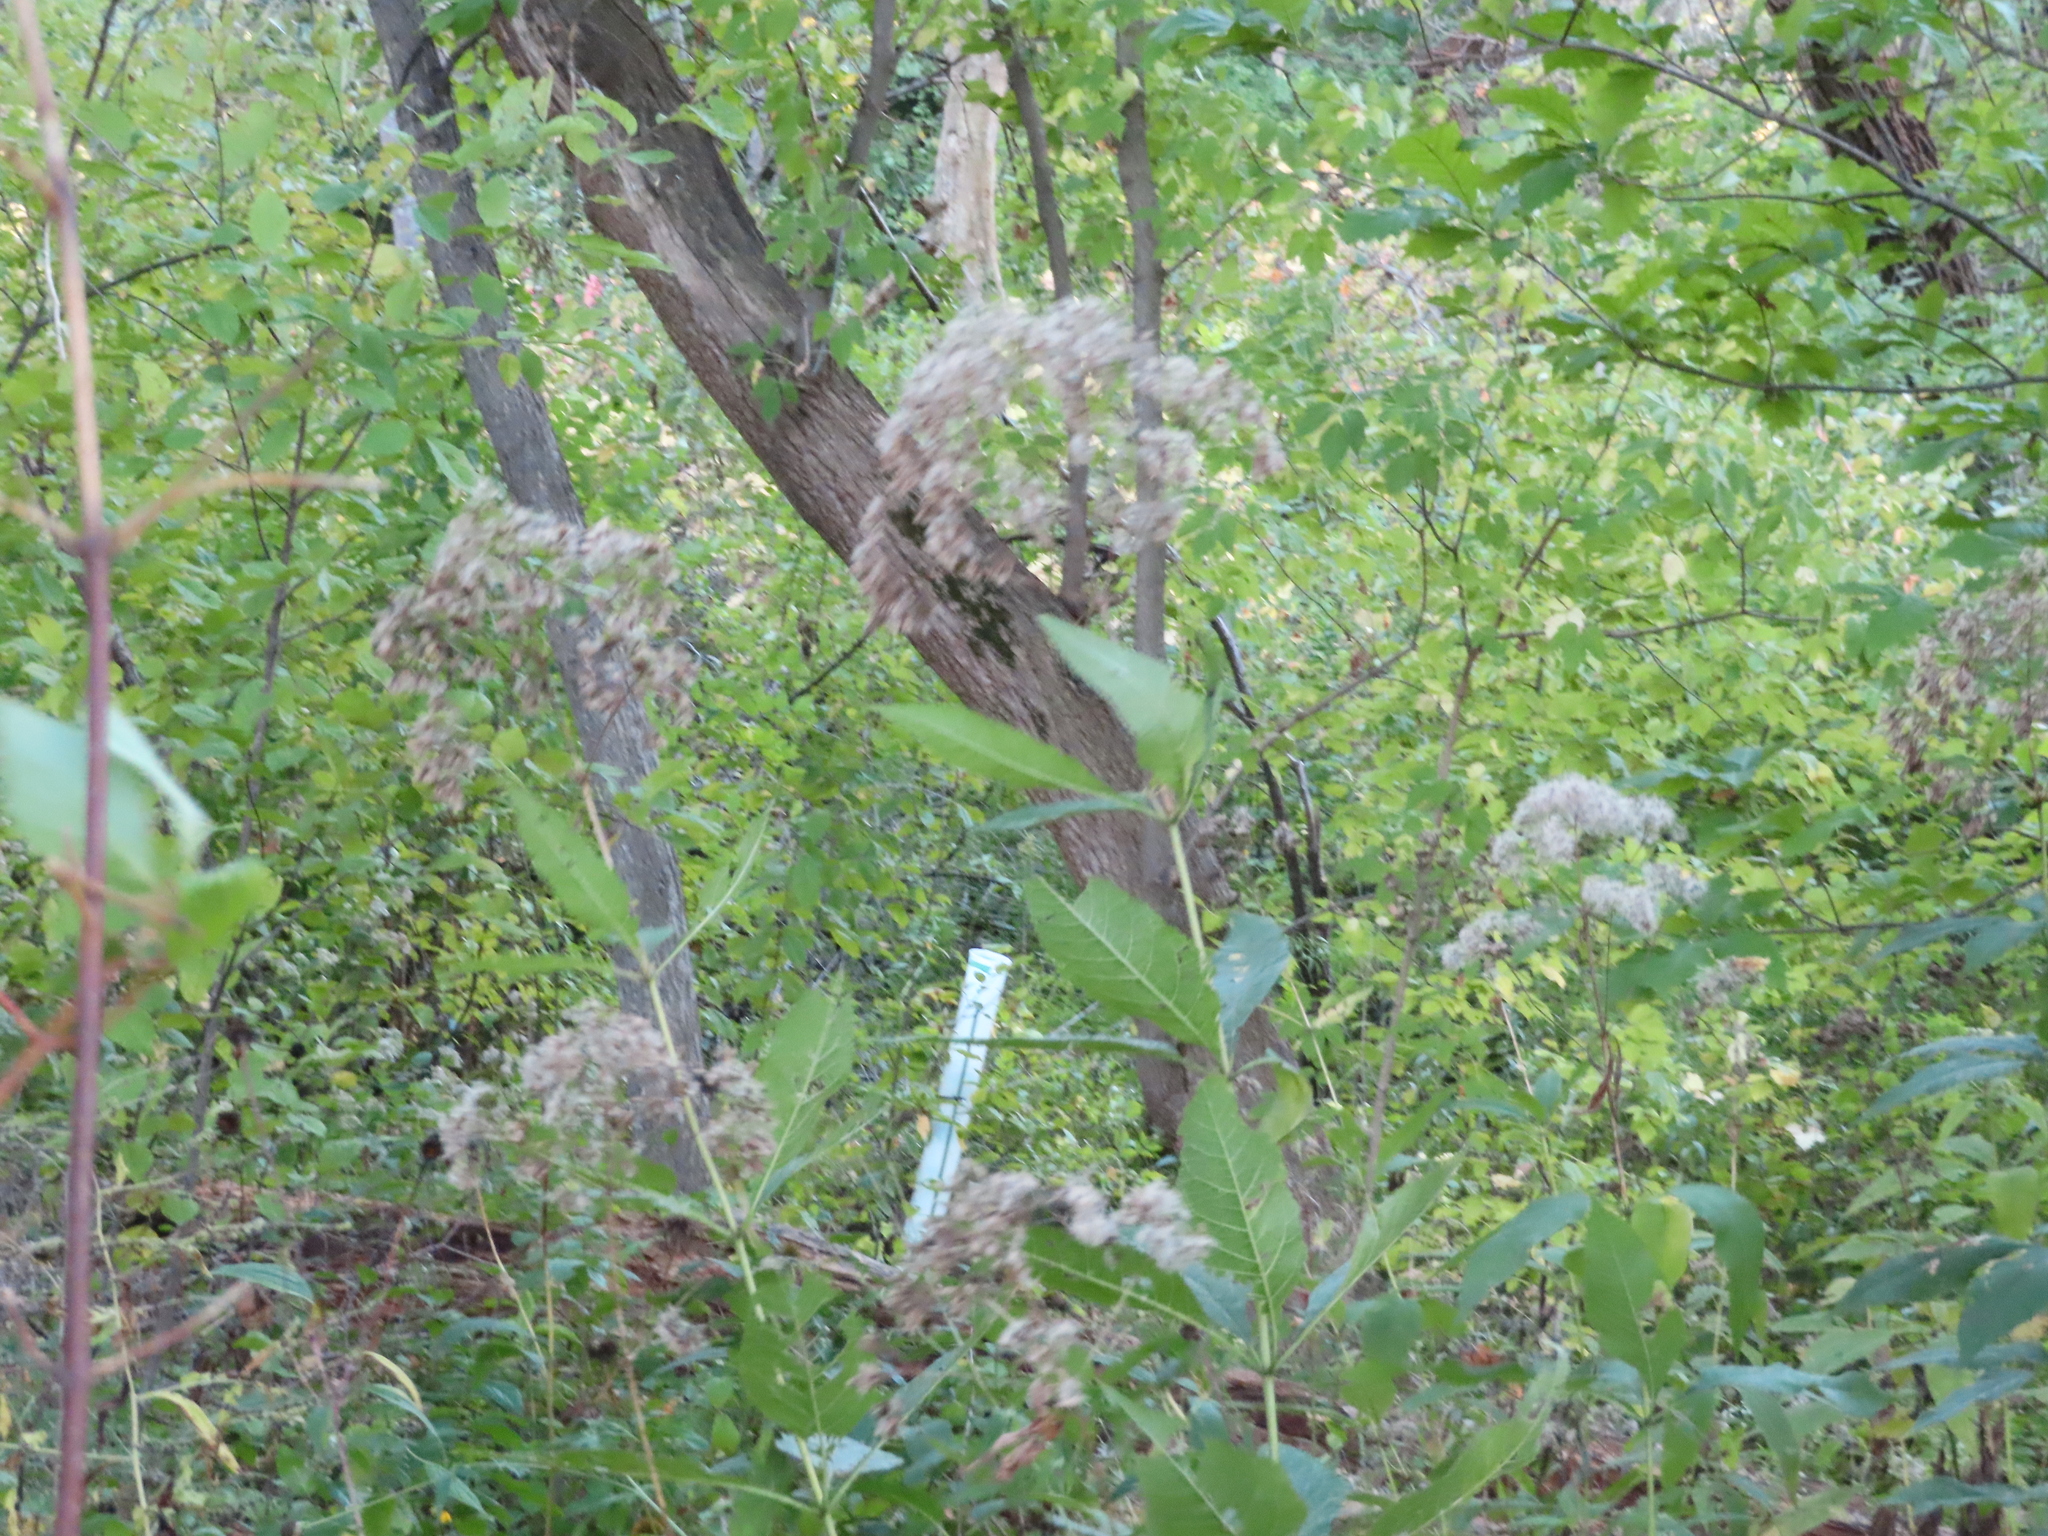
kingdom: Plantae
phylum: Tracheophyta
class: Magnoliopsida
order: Asterales
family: Asteraceae
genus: Eutrochium
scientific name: Eutrochium purpureum
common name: Gravelroot
